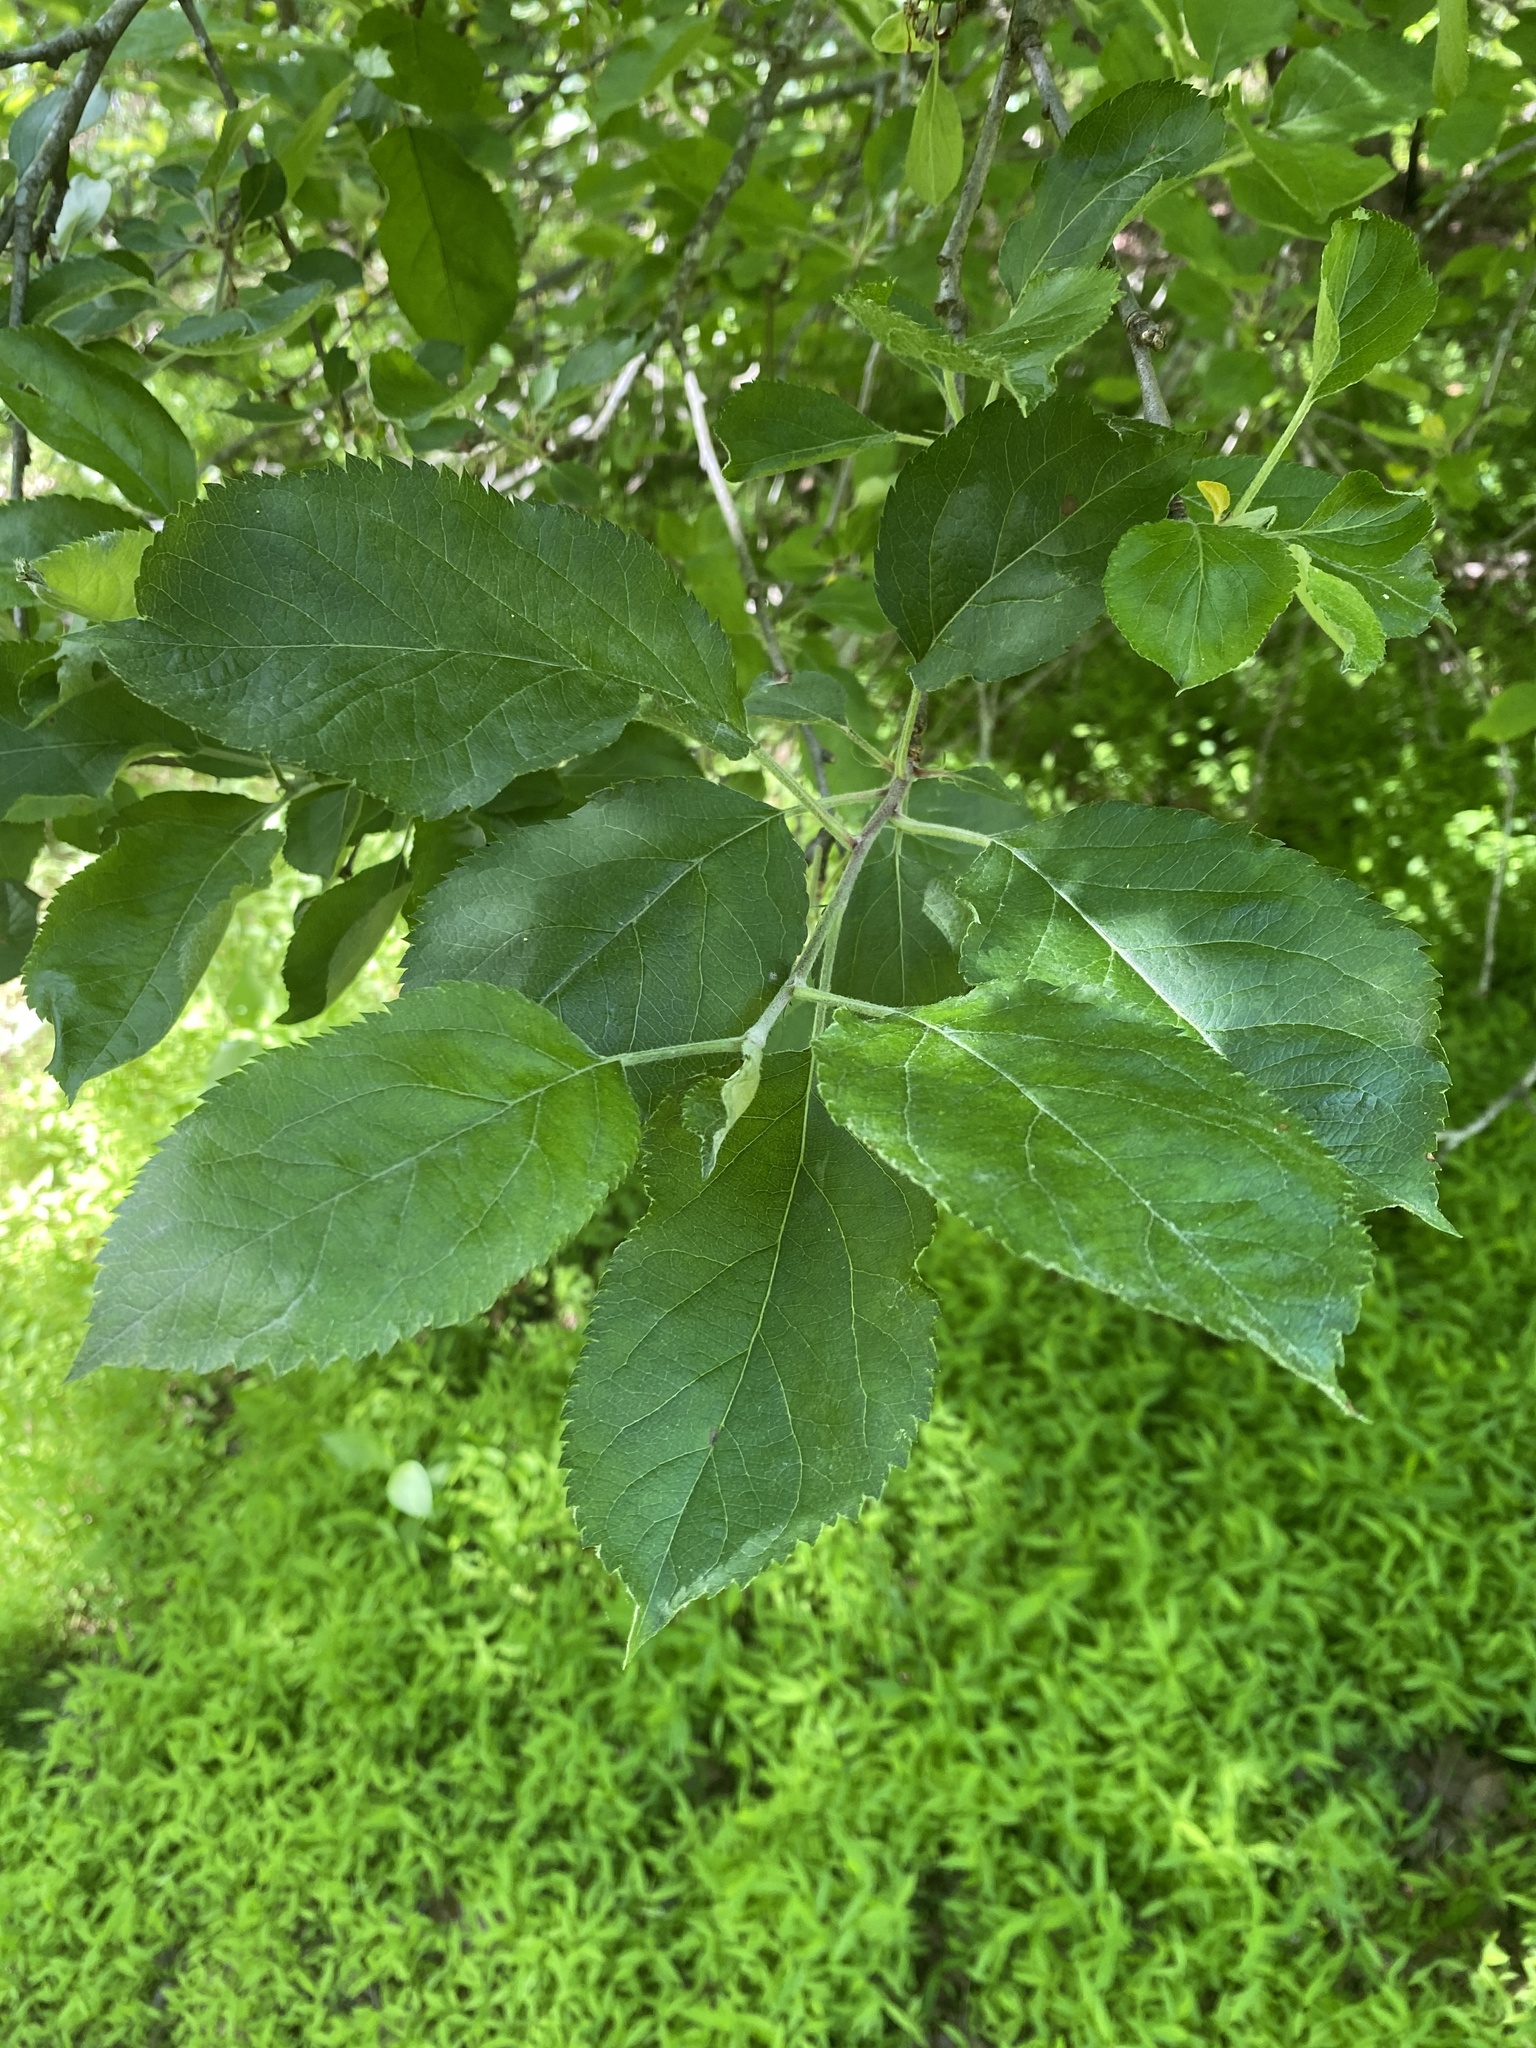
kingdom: Plantae
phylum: Tracheophyta
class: Magnoliopsida
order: Rosales
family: Rosaceae
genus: Malus
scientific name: Malus domestica
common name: Apple
